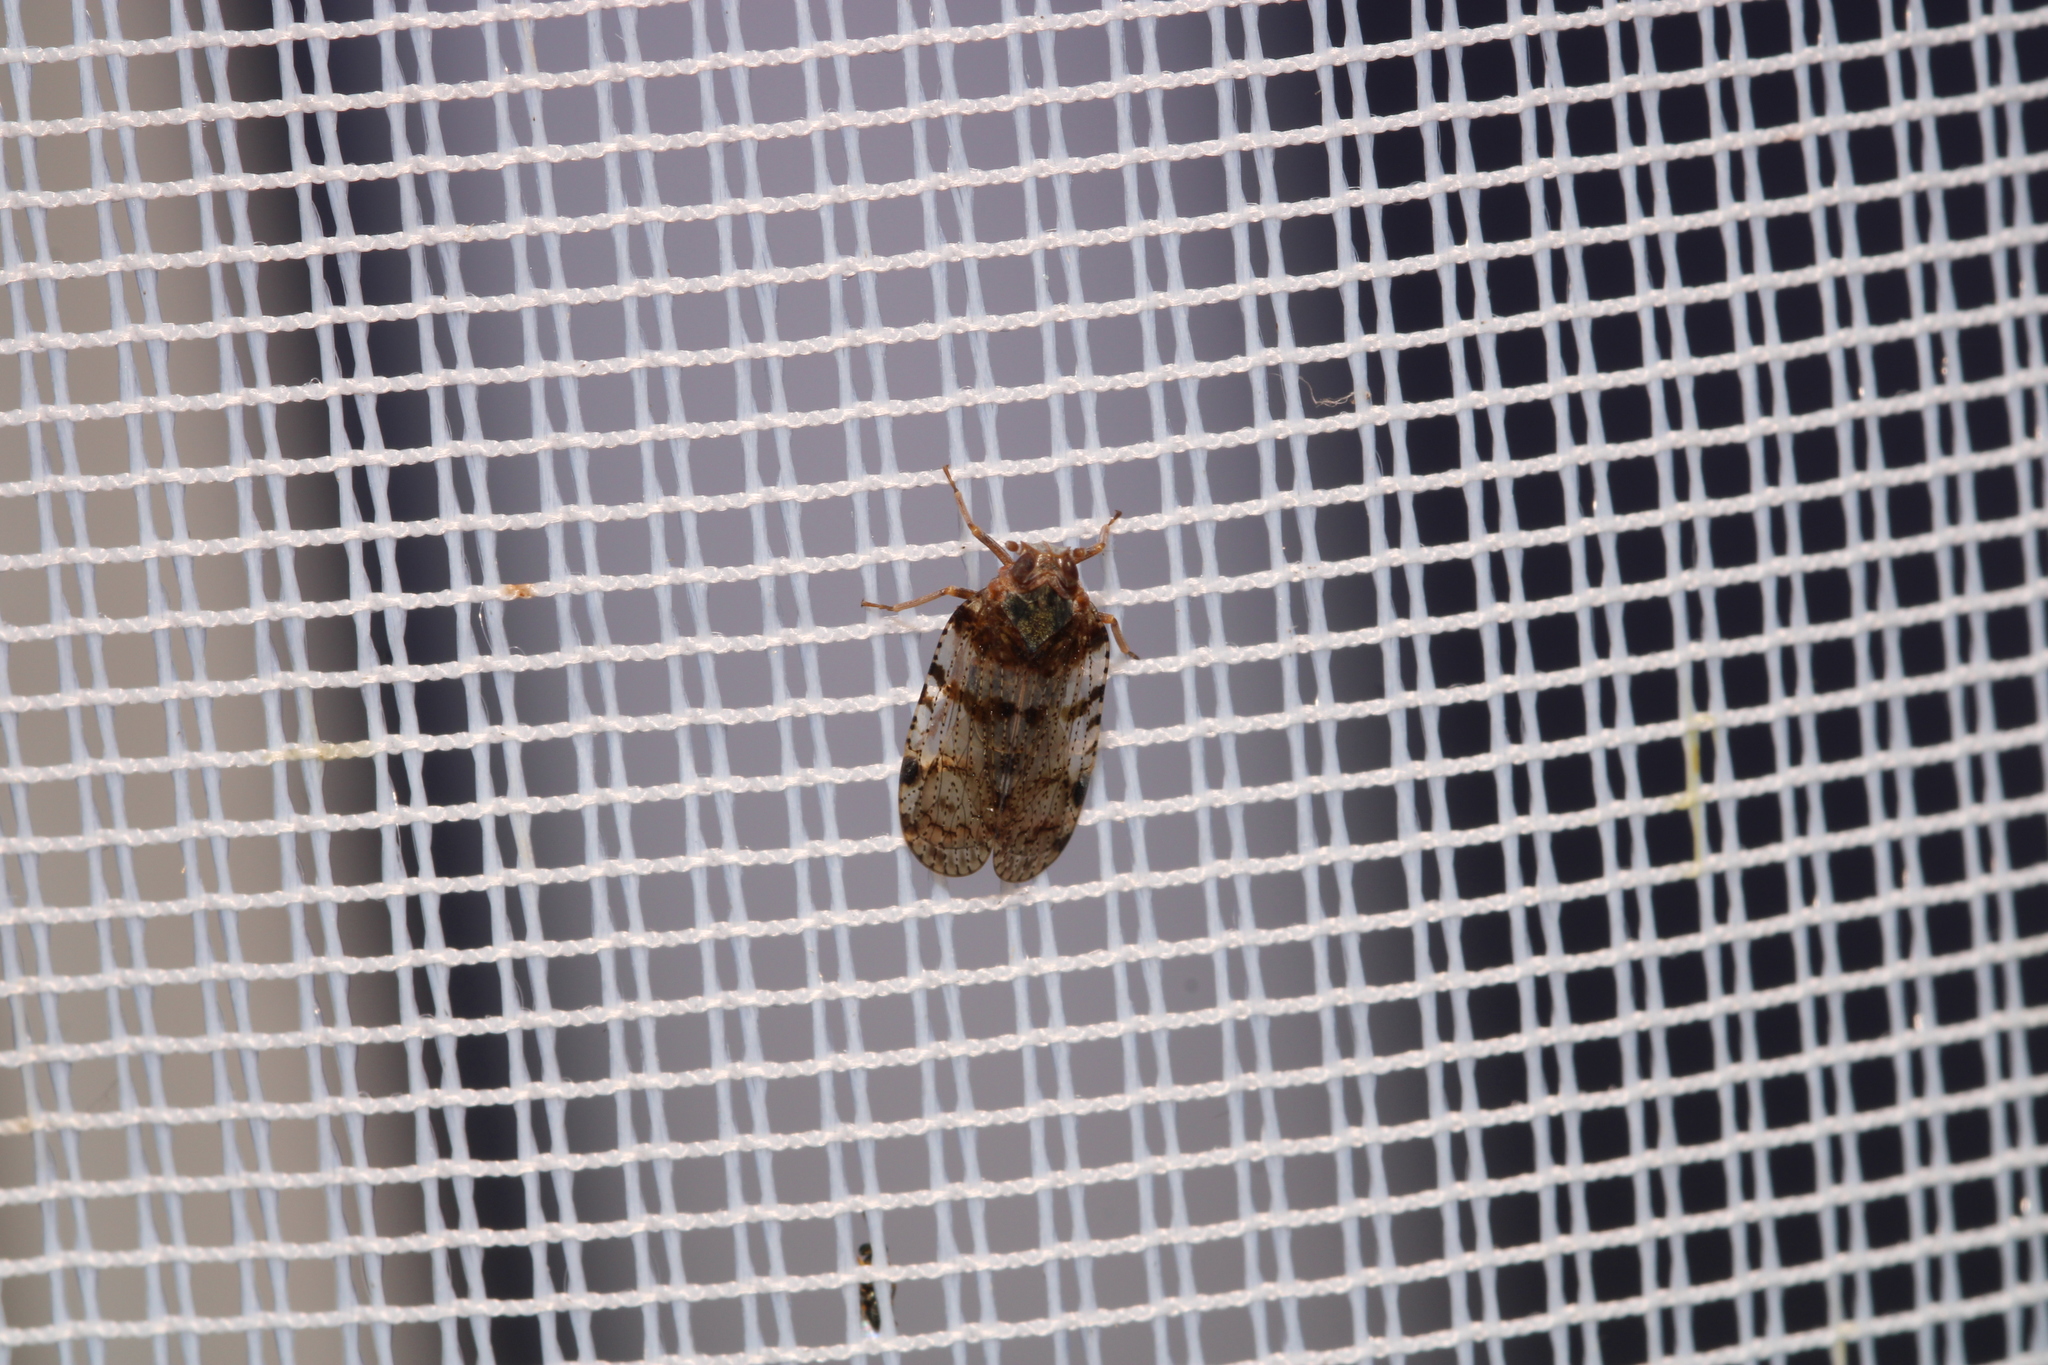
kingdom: Animalia
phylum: Arthropoda
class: Insecta
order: Hemiptera
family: Cixiidae
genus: Cixius
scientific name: Cixius nervosus
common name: Common lacehopper
